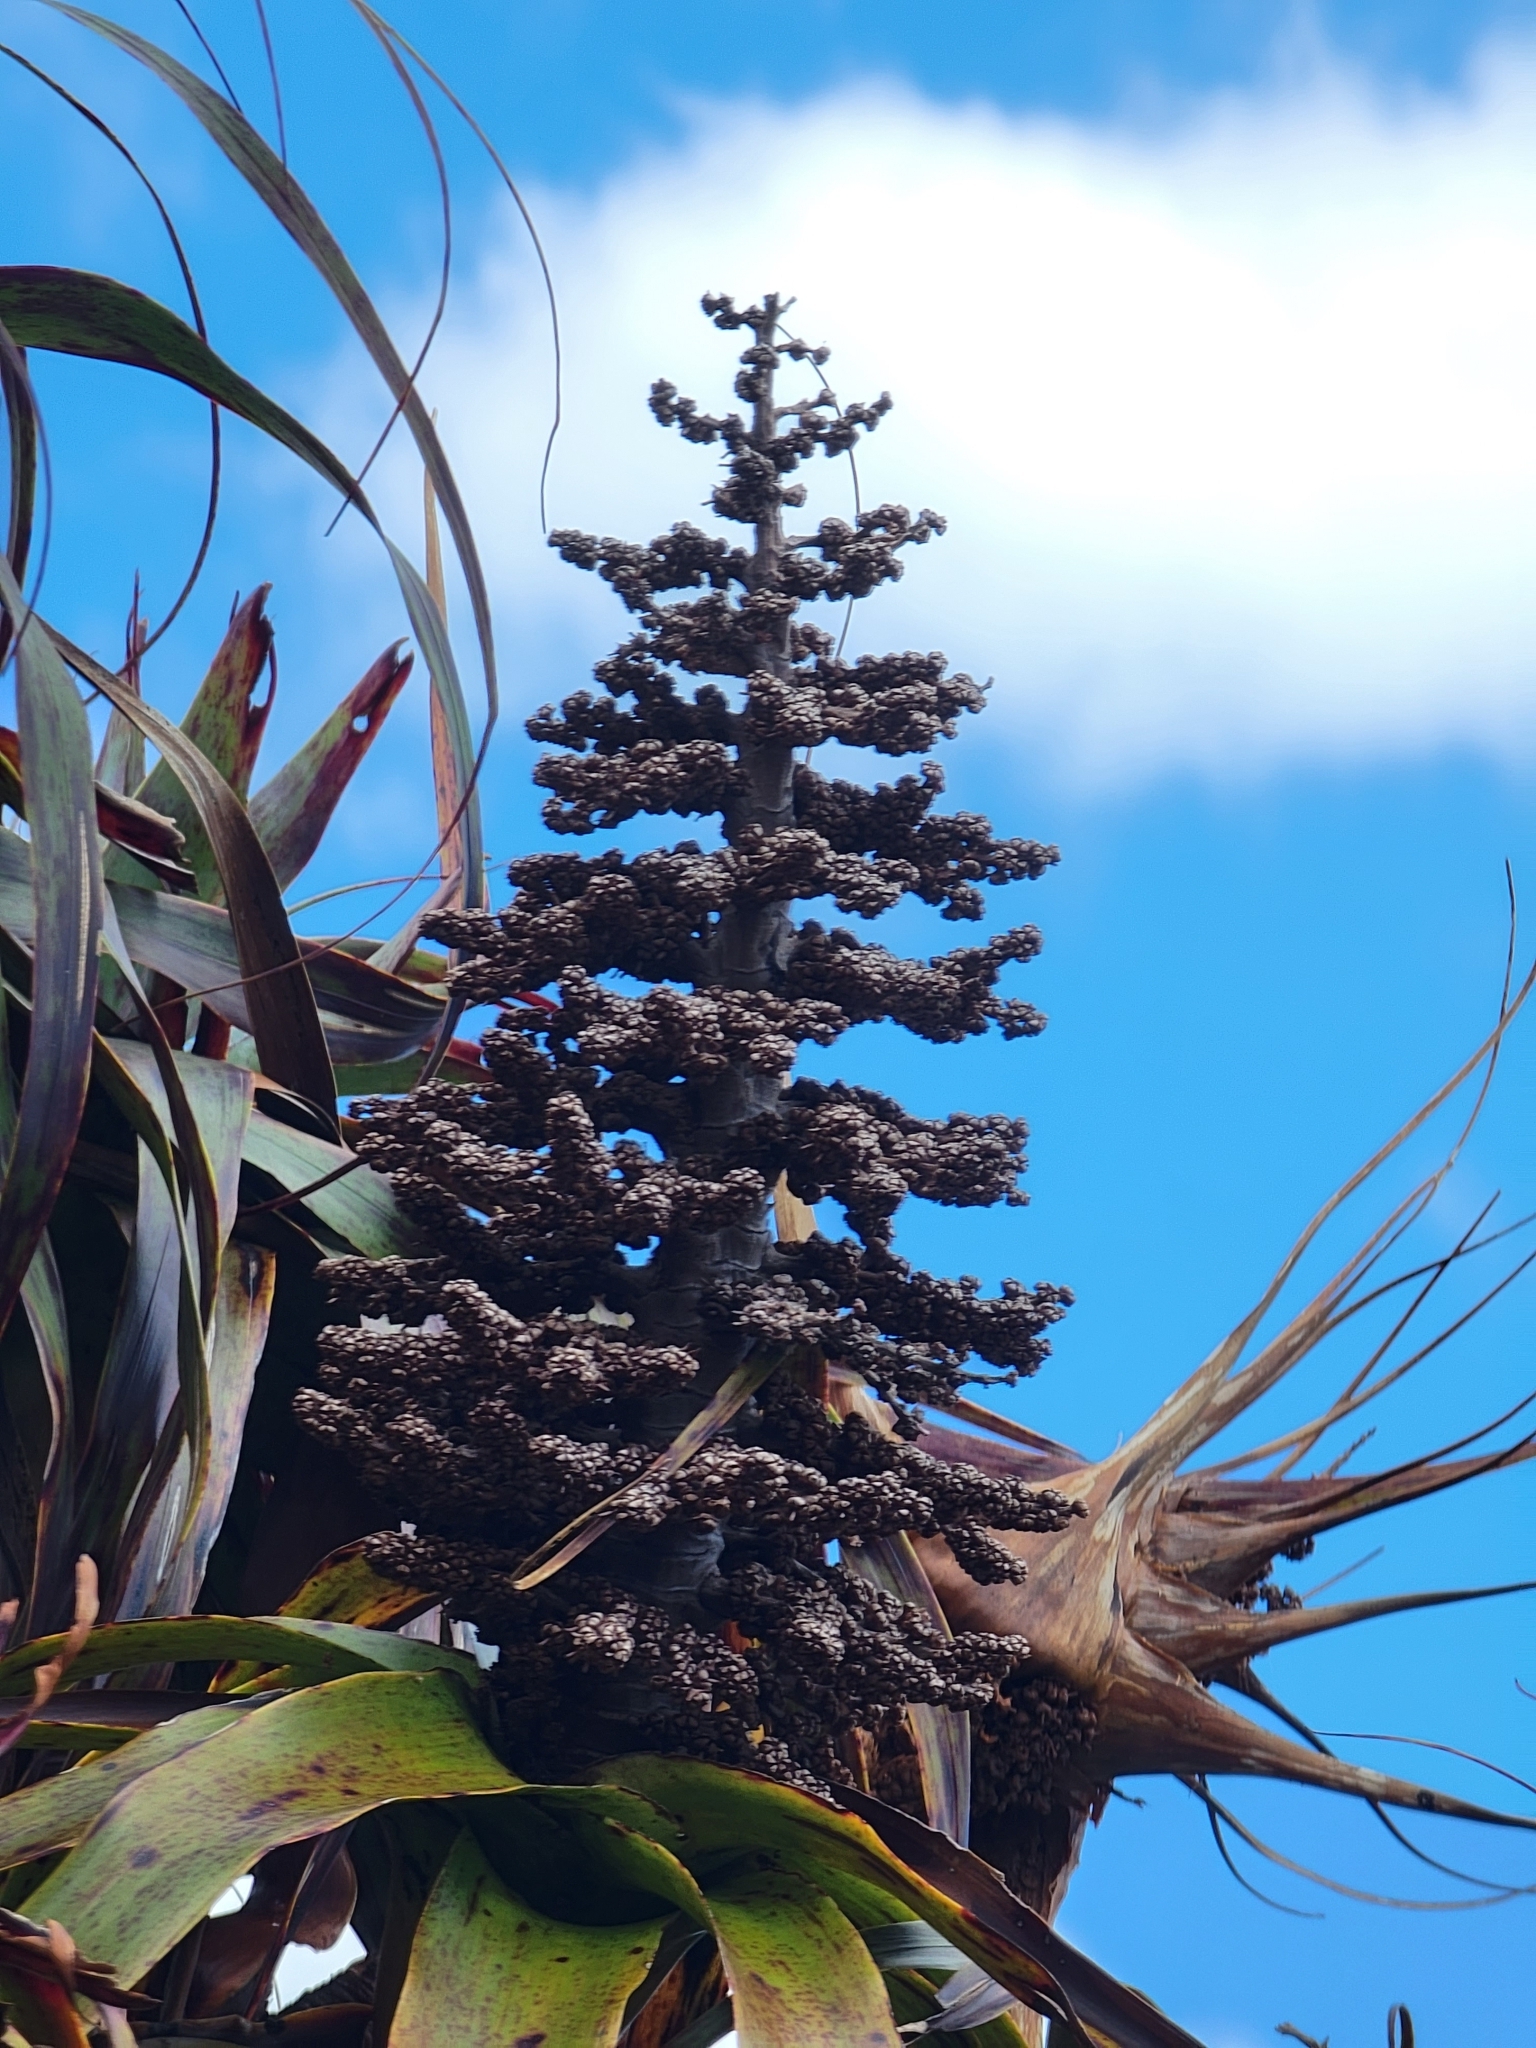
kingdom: Plantae
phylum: Tracheophyta
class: Magnoliopsida
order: Ericales
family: Ericaceae
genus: Dracophyllum
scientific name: Dracophyllum traversii
